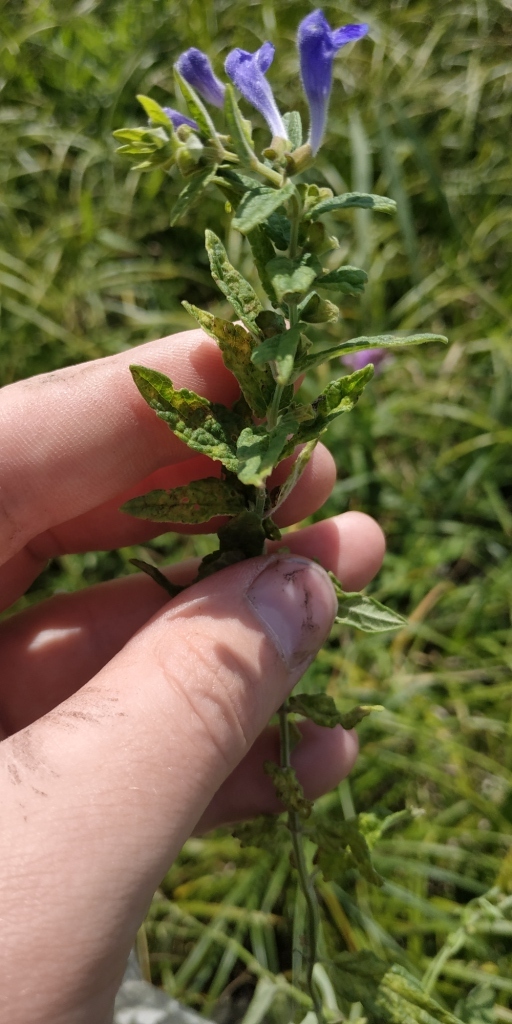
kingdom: Plantae
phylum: Tracheophyta
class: Magnoliopsida
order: Lamiales
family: Lamiaceae
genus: Scutellaria
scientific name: Scutellaria galericulata
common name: Skullcap
